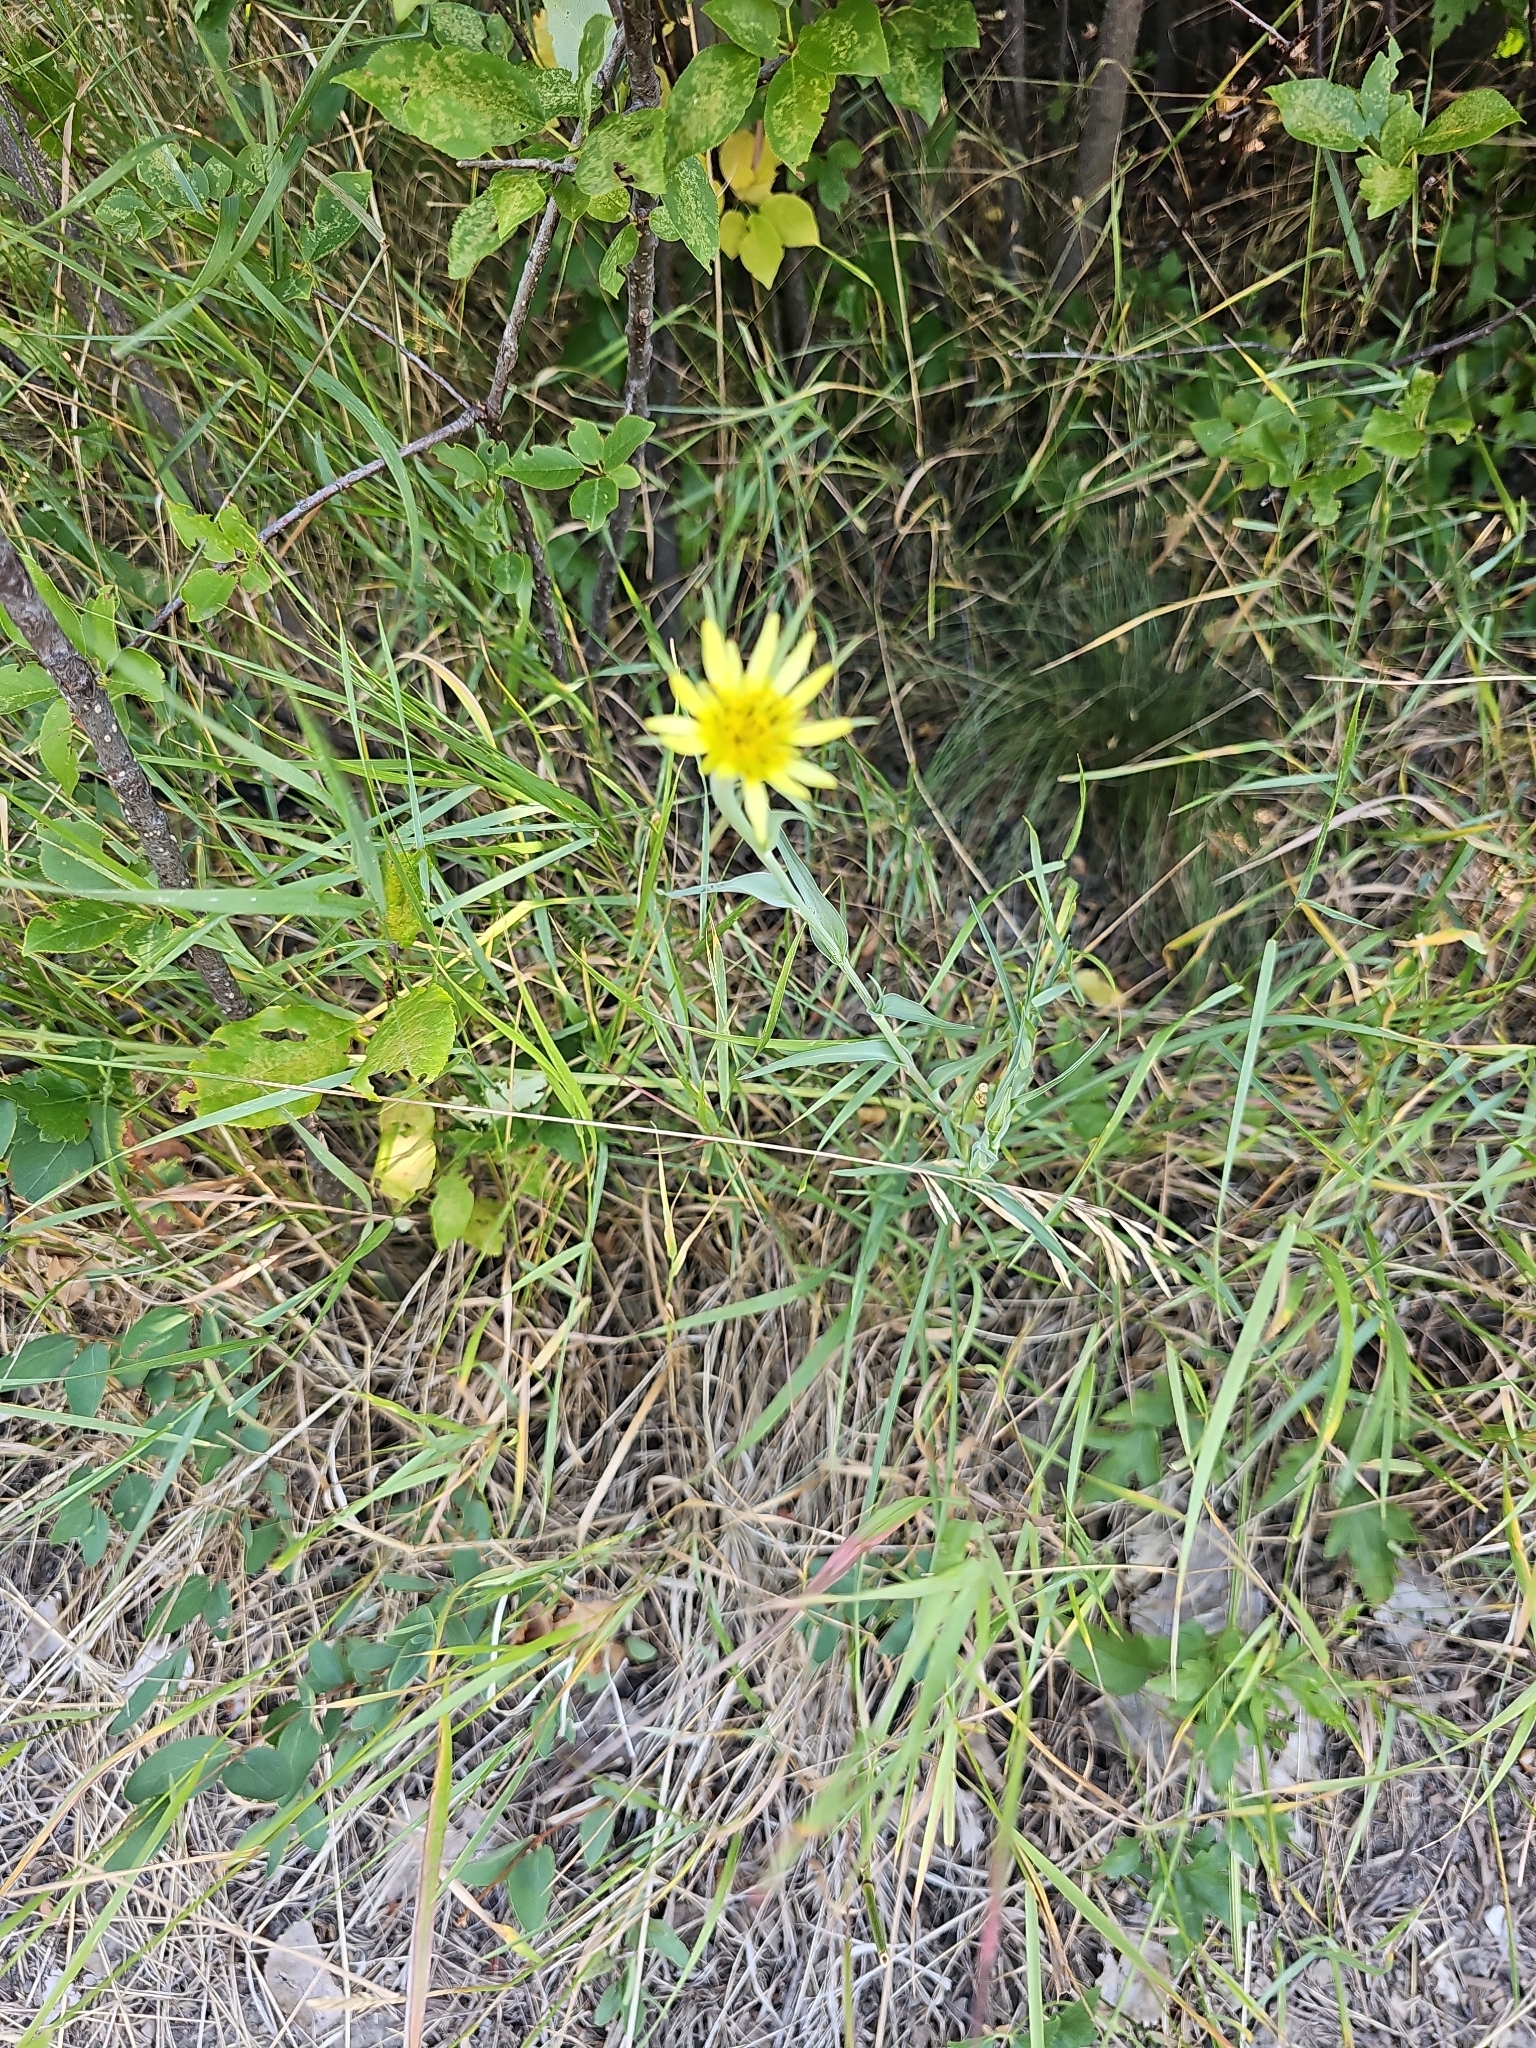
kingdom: Plantae
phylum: Tracheophyta
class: Magnoliopsida
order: Asterales
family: Asteraceae
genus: Tragopogon
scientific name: Tragopogon dubius
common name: Yellow salsify
